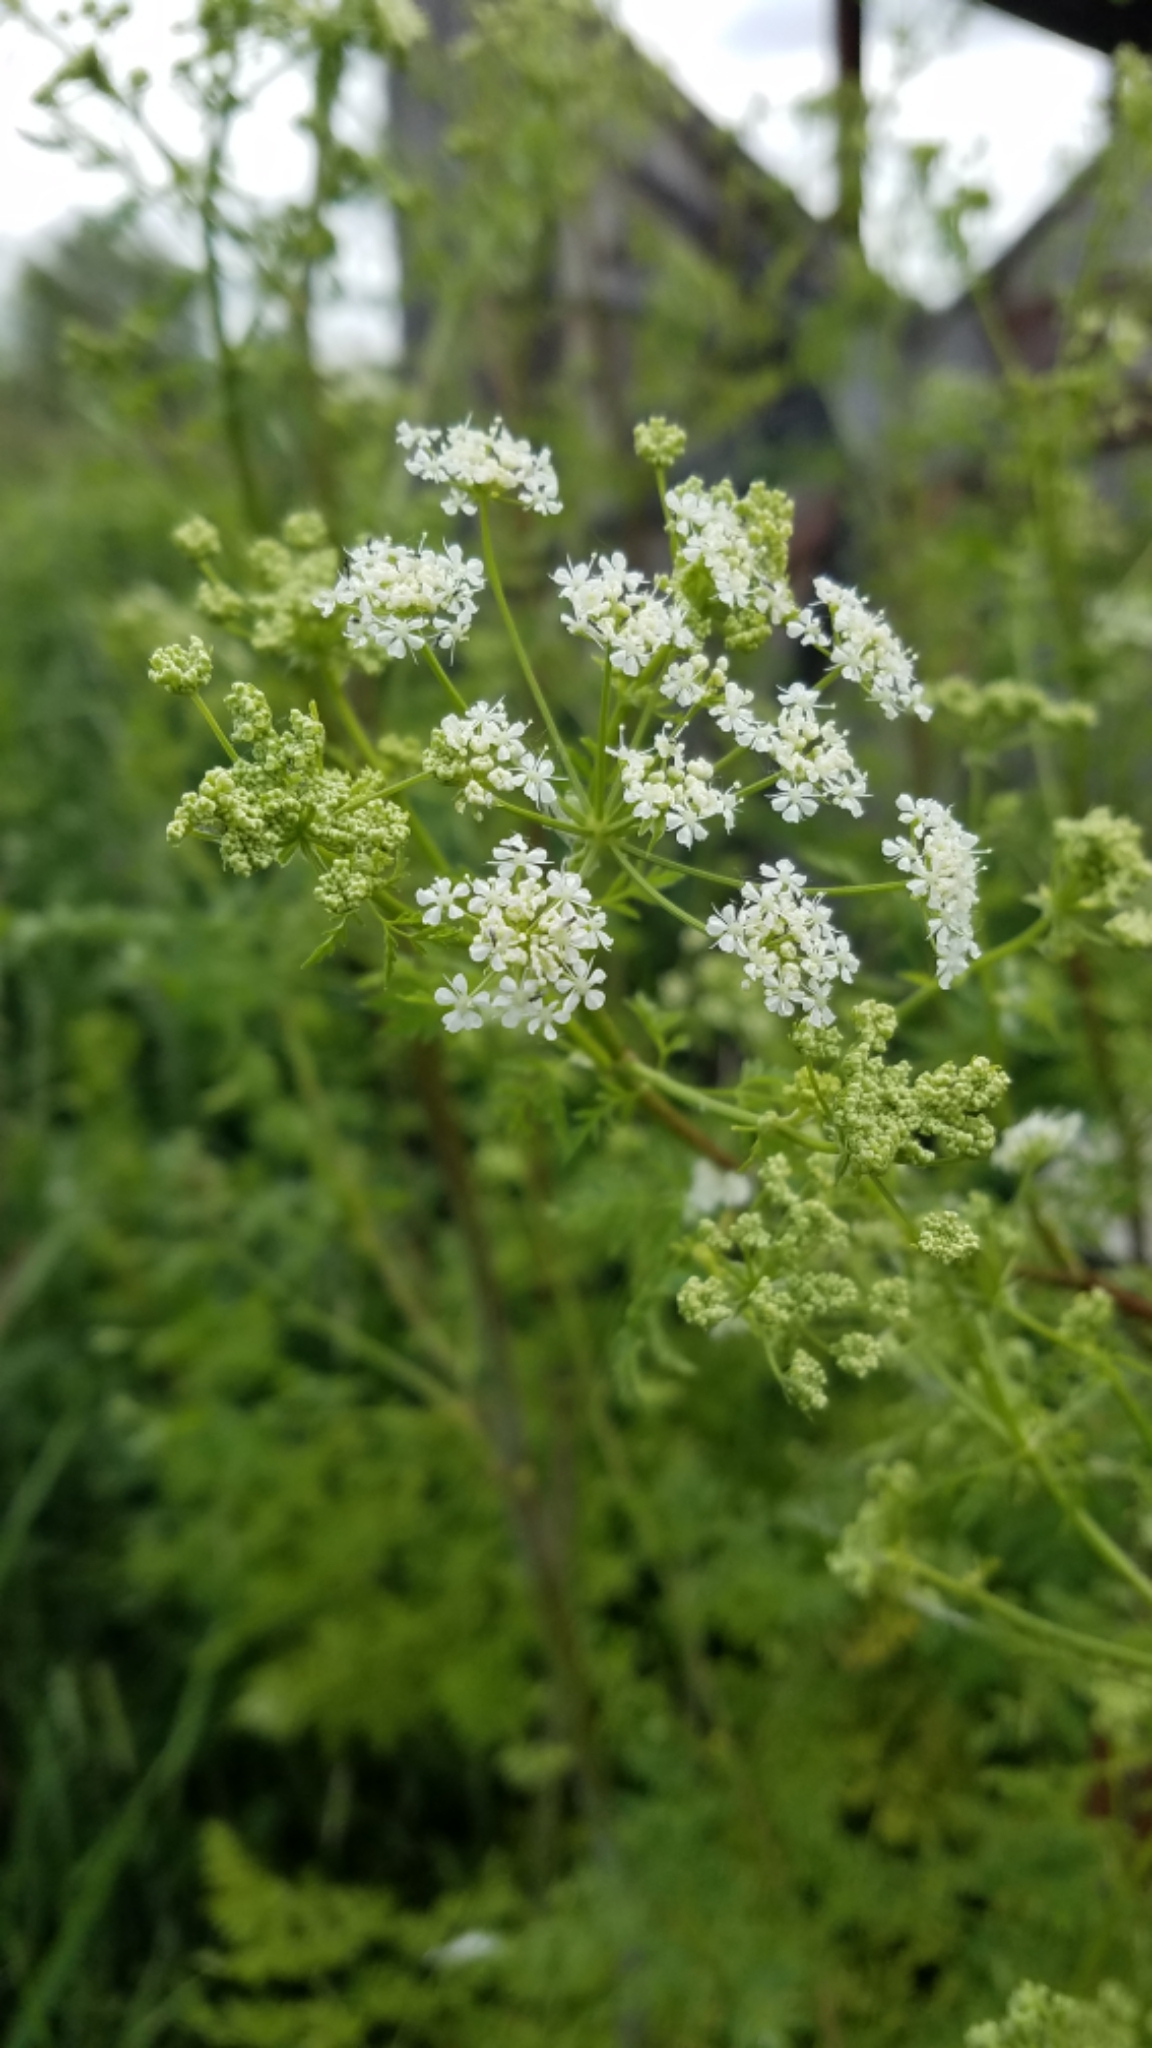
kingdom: Plantae
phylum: Tracheophyta
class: Magnoliopsida
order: Apiales
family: Apiaceae
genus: Conium
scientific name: Conium maculatum
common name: Hemlock
